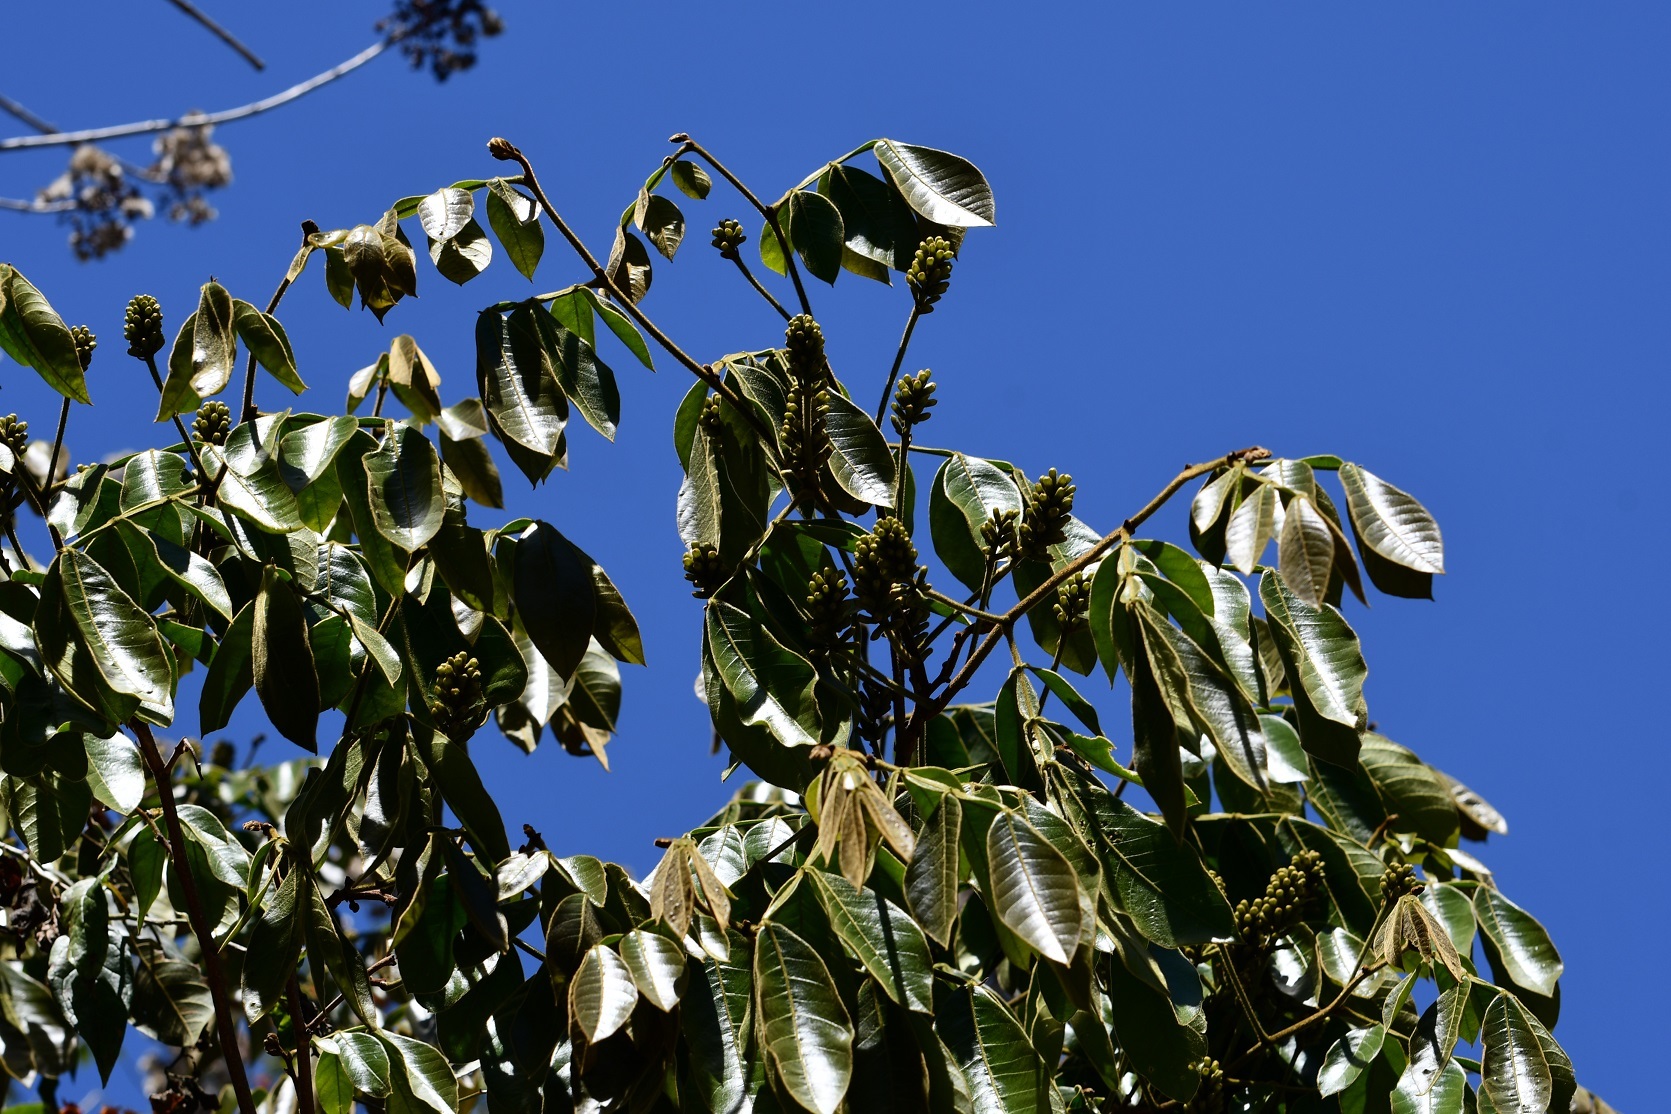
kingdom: Plantae
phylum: Tracheophyta
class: Magnoliopsida
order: Fabales
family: Fabaceae
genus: Inga
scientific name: Inga chiapensis
